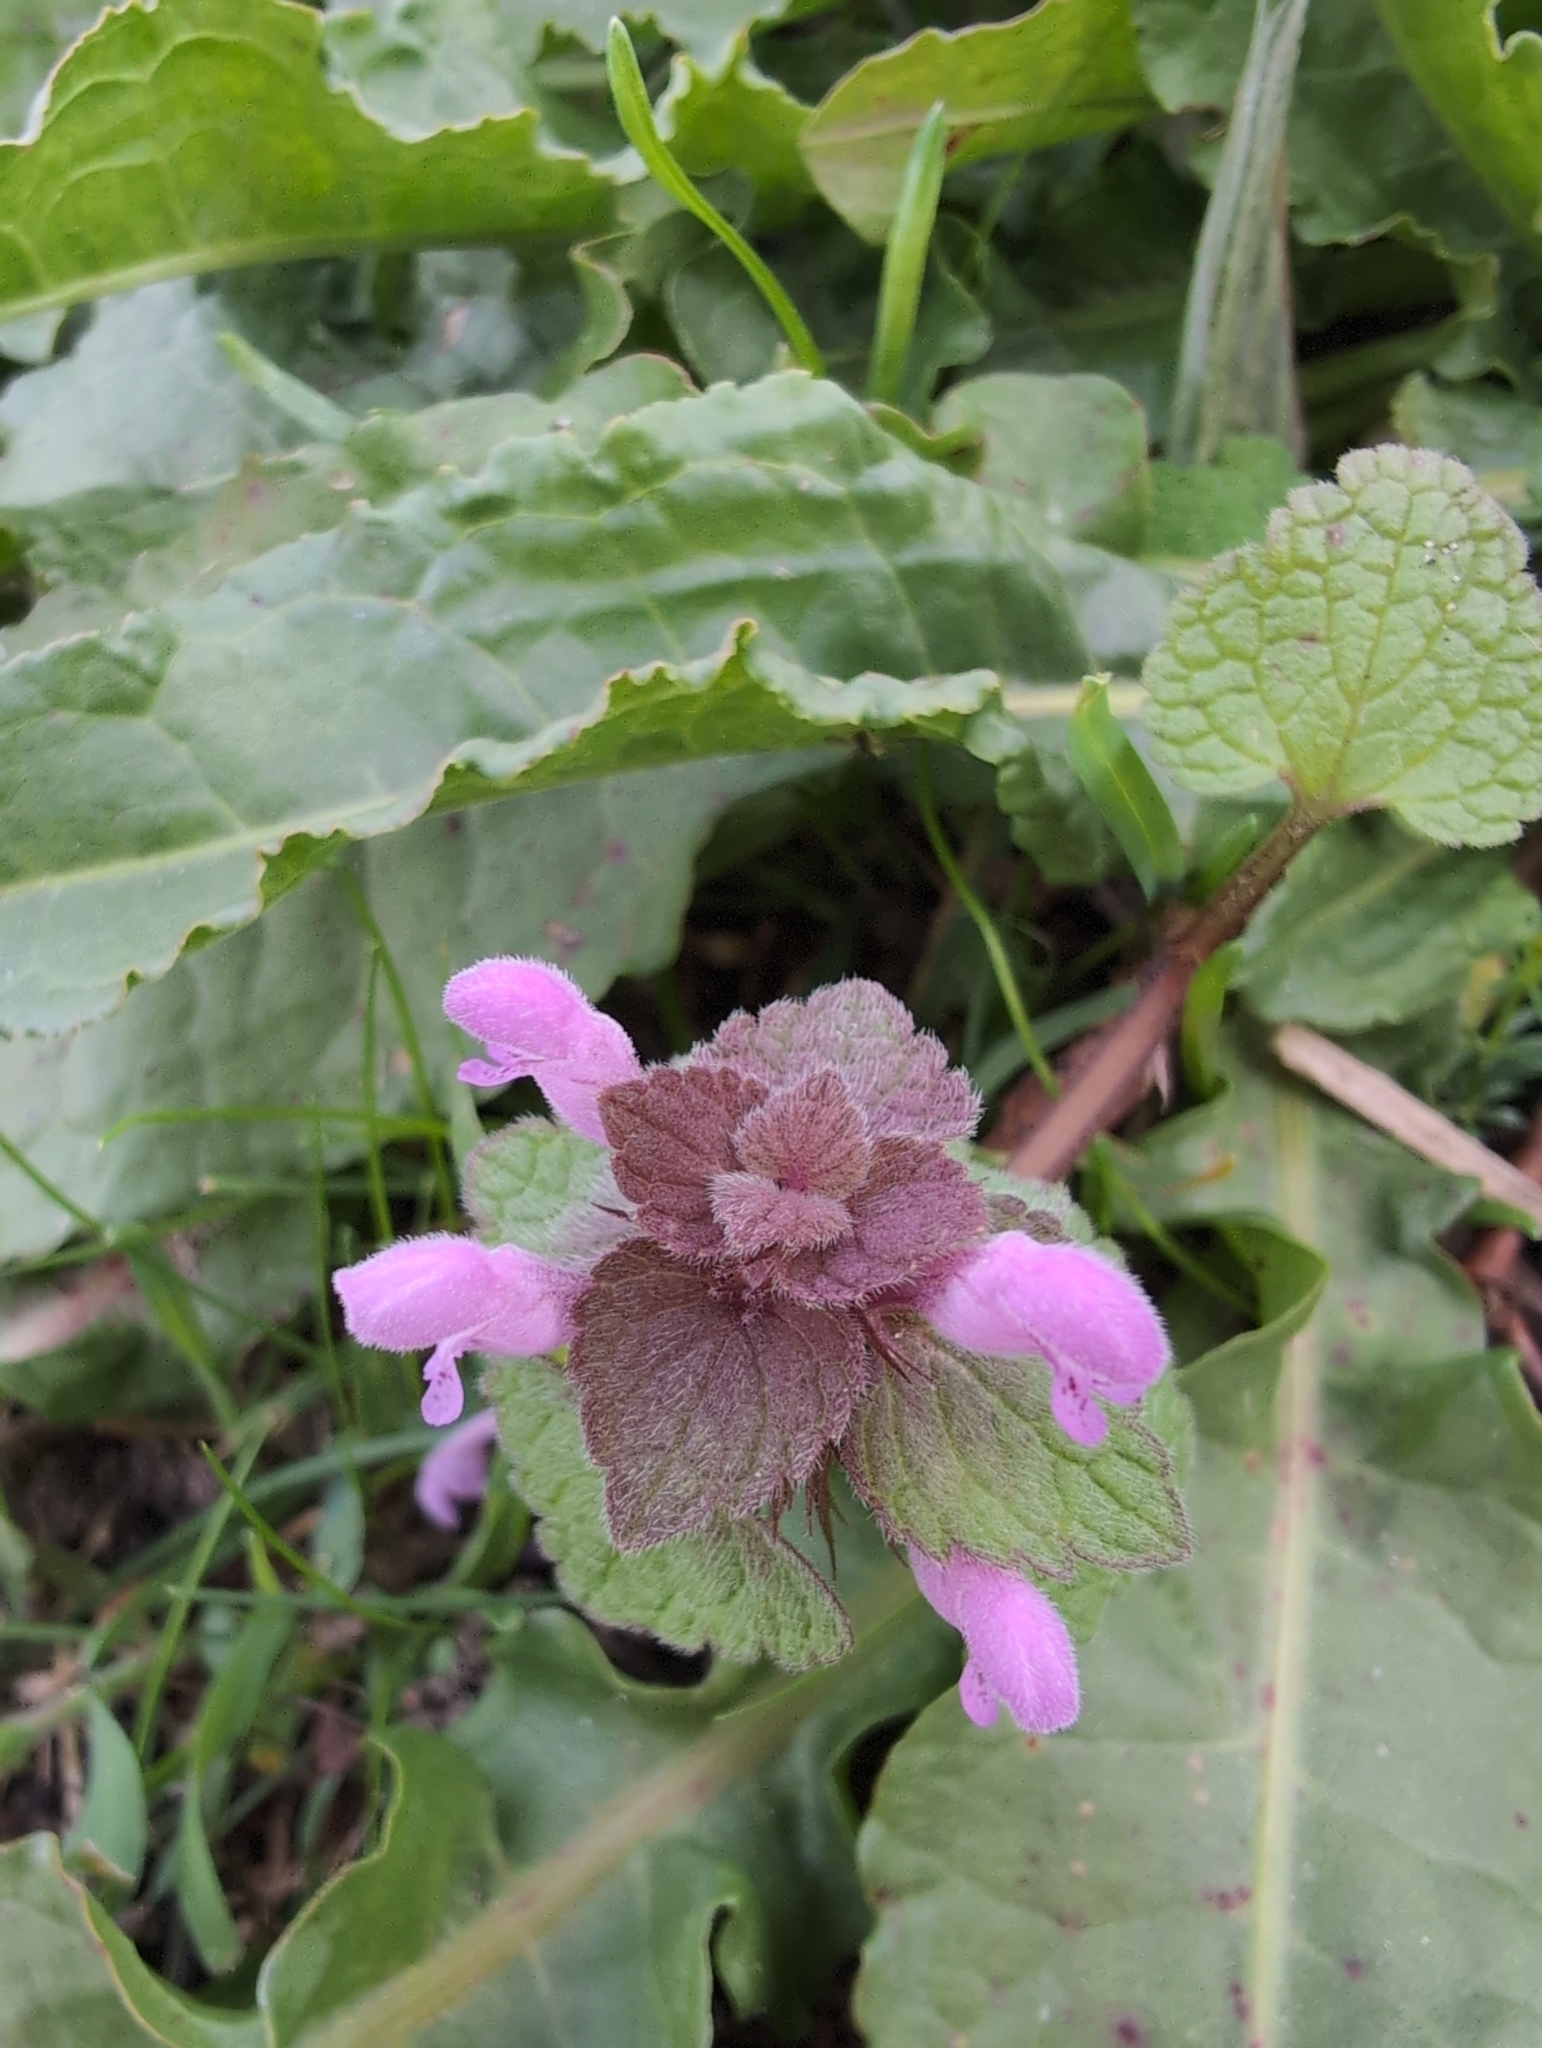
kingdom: Plantae
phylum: Tracheophyta
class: Magnoliopsida
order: Lamiales
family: Lamiaceae
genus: Lamium
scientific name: Lamium purpureum
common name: Red dead-nettle
